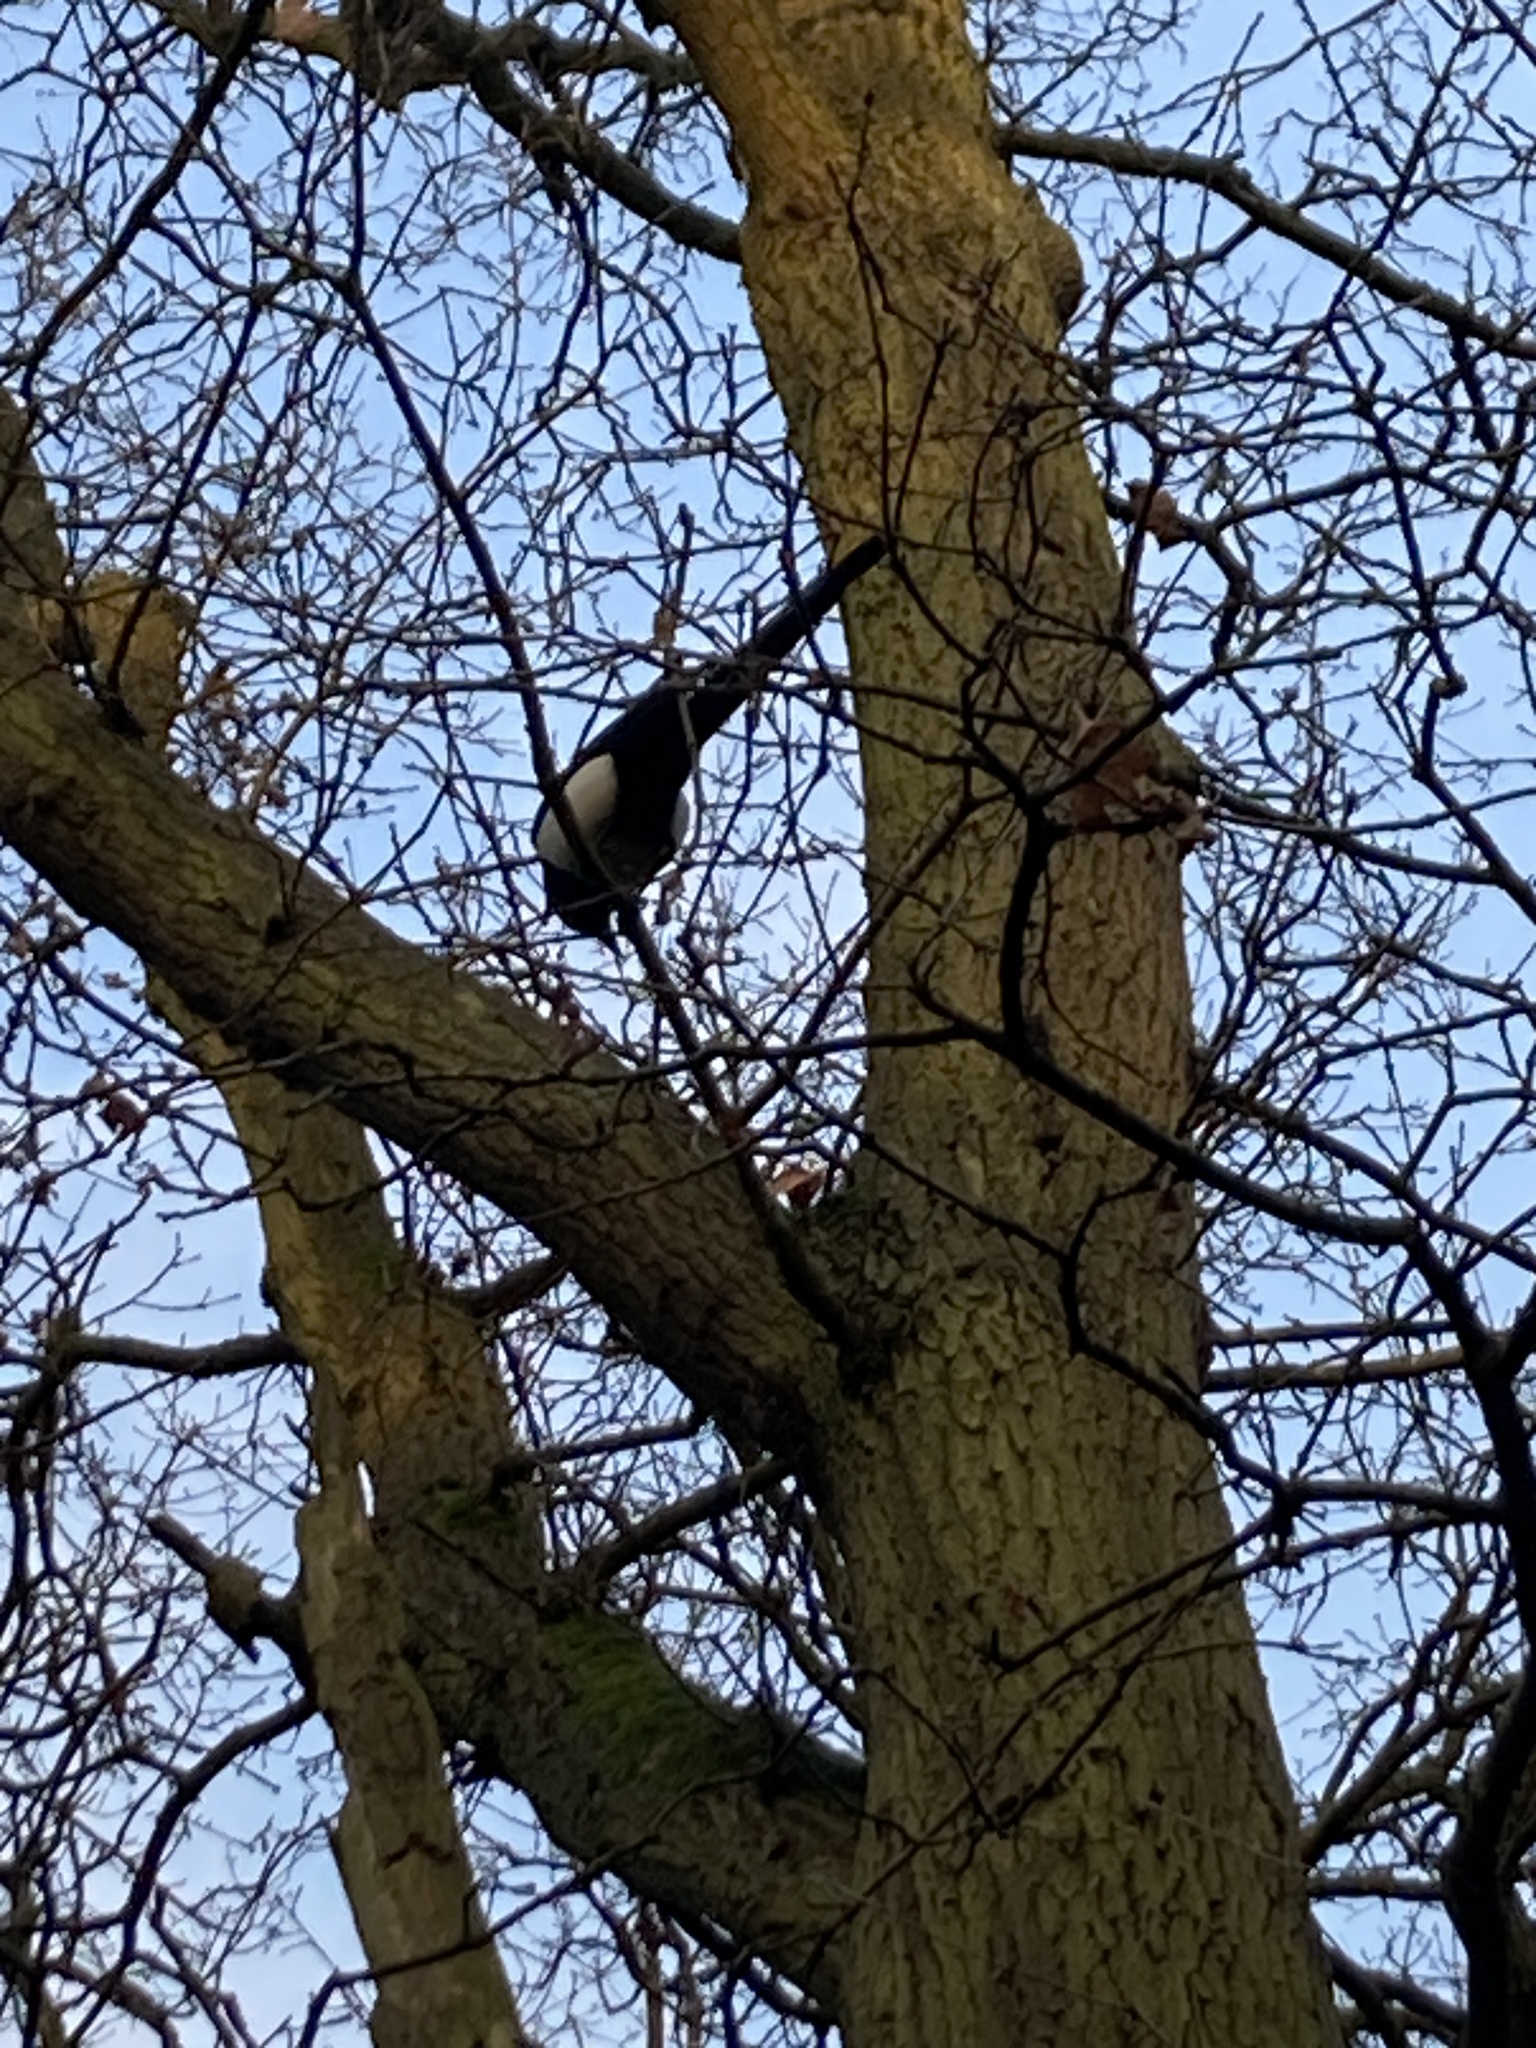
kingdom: Animalia
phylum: Chordata
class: Aves
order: Passeriformes
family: Corvidae
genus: Pica
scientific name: Pica pica
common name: Eurasian magpie
